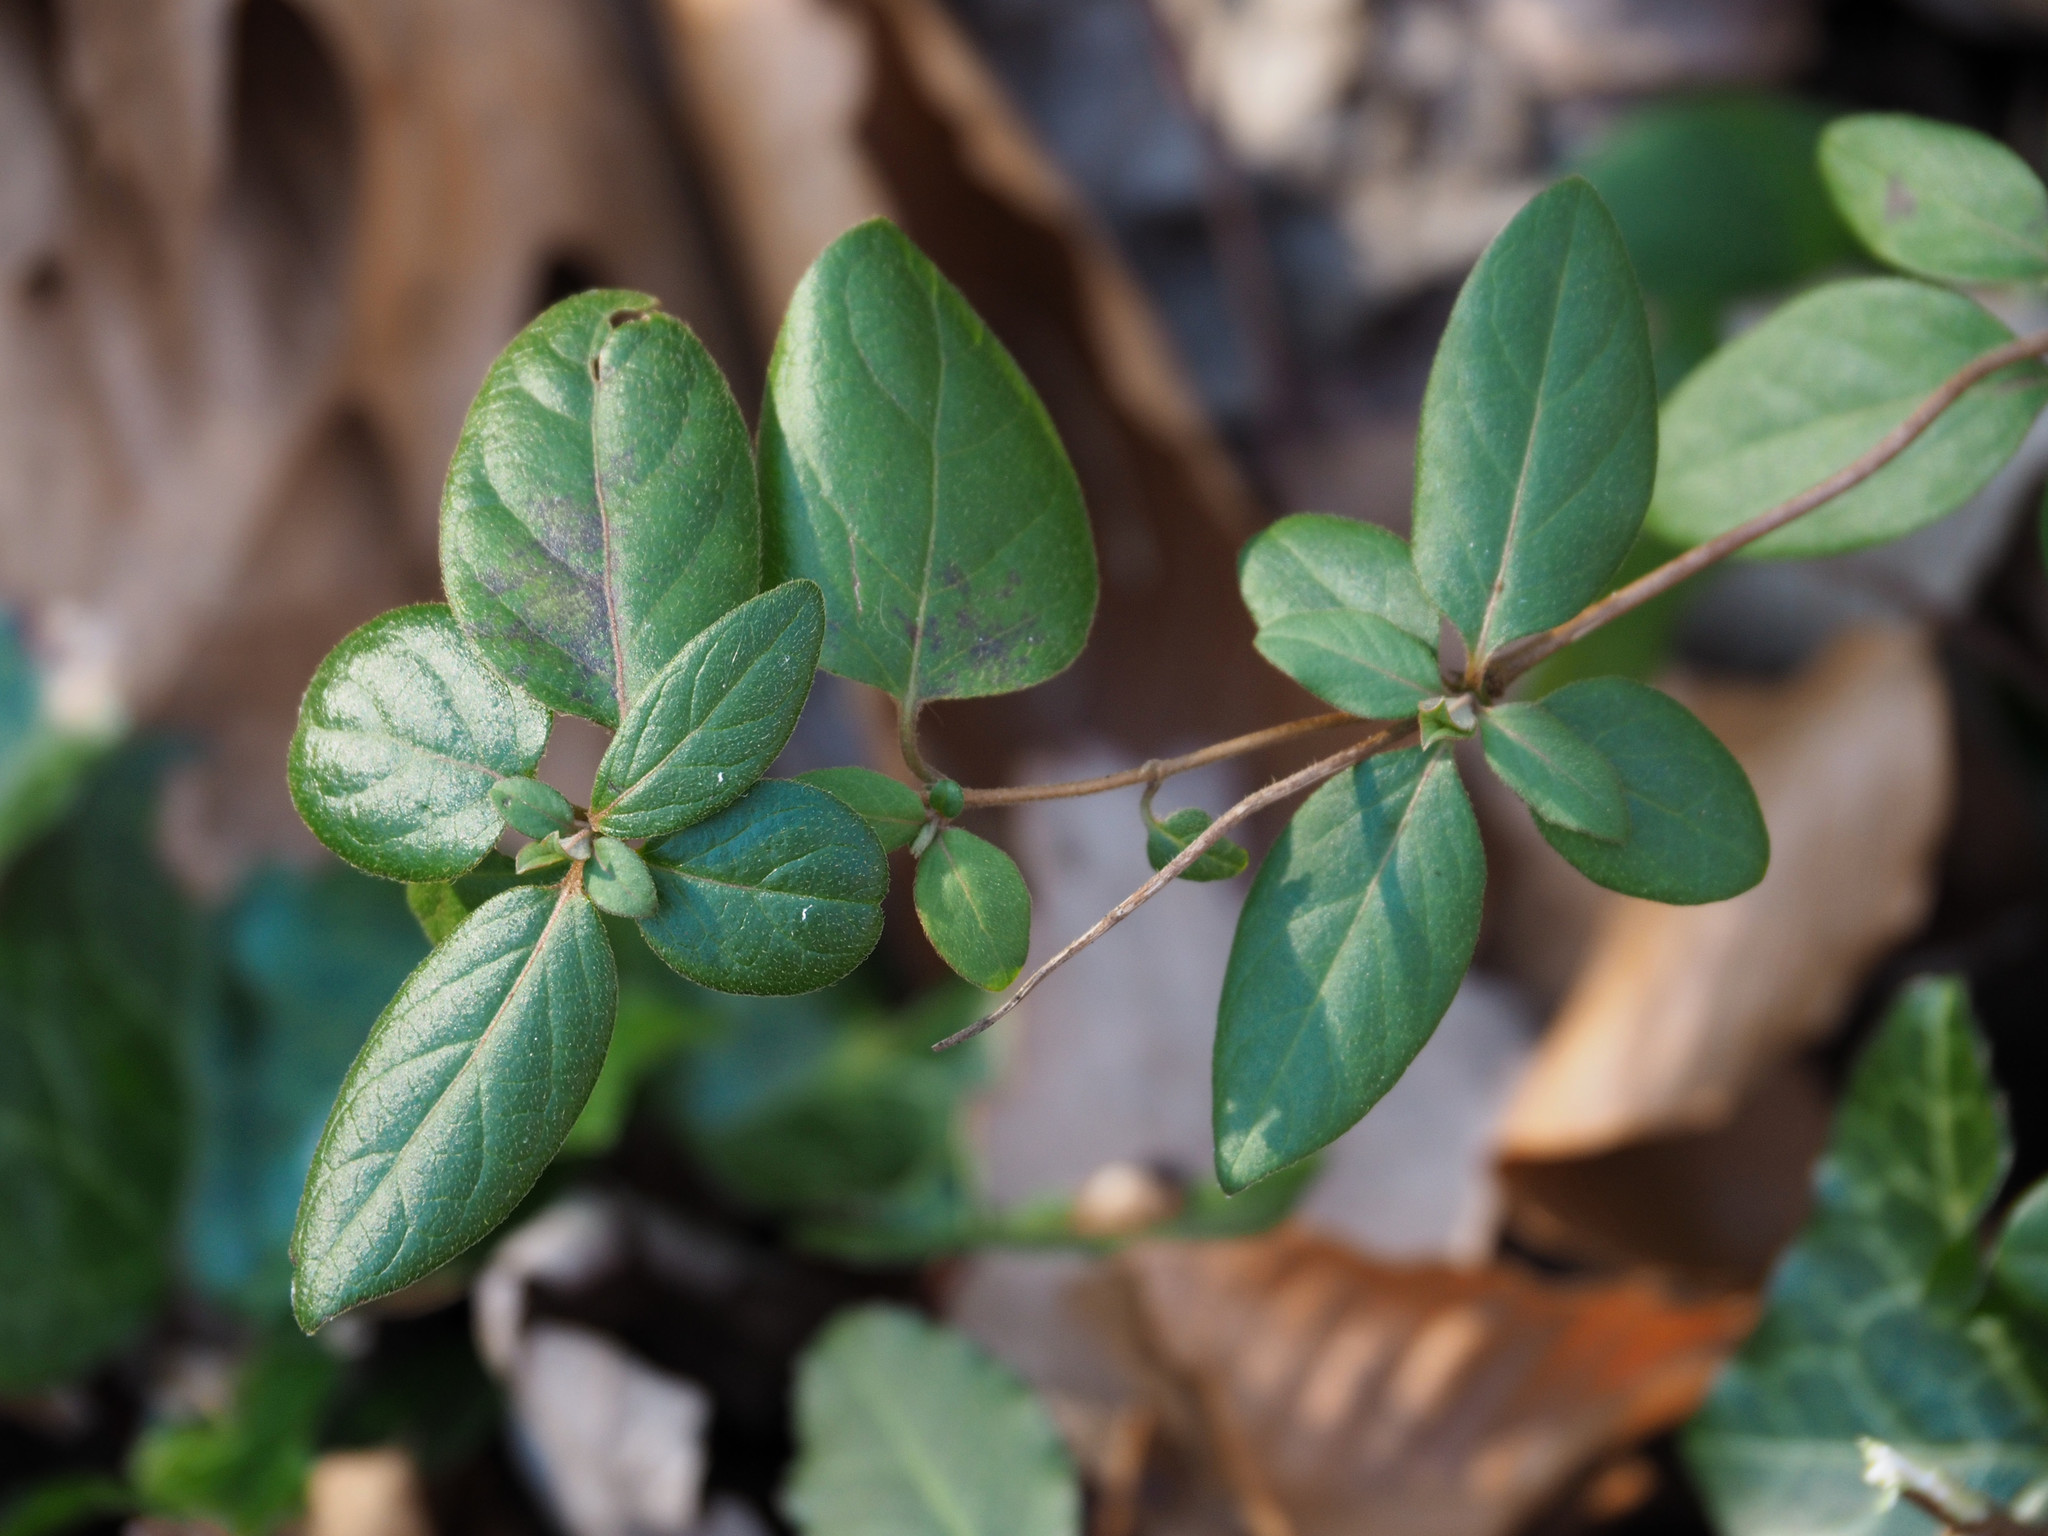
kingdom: Plantae
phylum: Tracheophyta
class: Magnoliopsida
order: Dipsacales
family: Caprifoliaceae
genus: Lonicera
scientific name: Lonicera japonica
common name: Japanese honeysuckle
